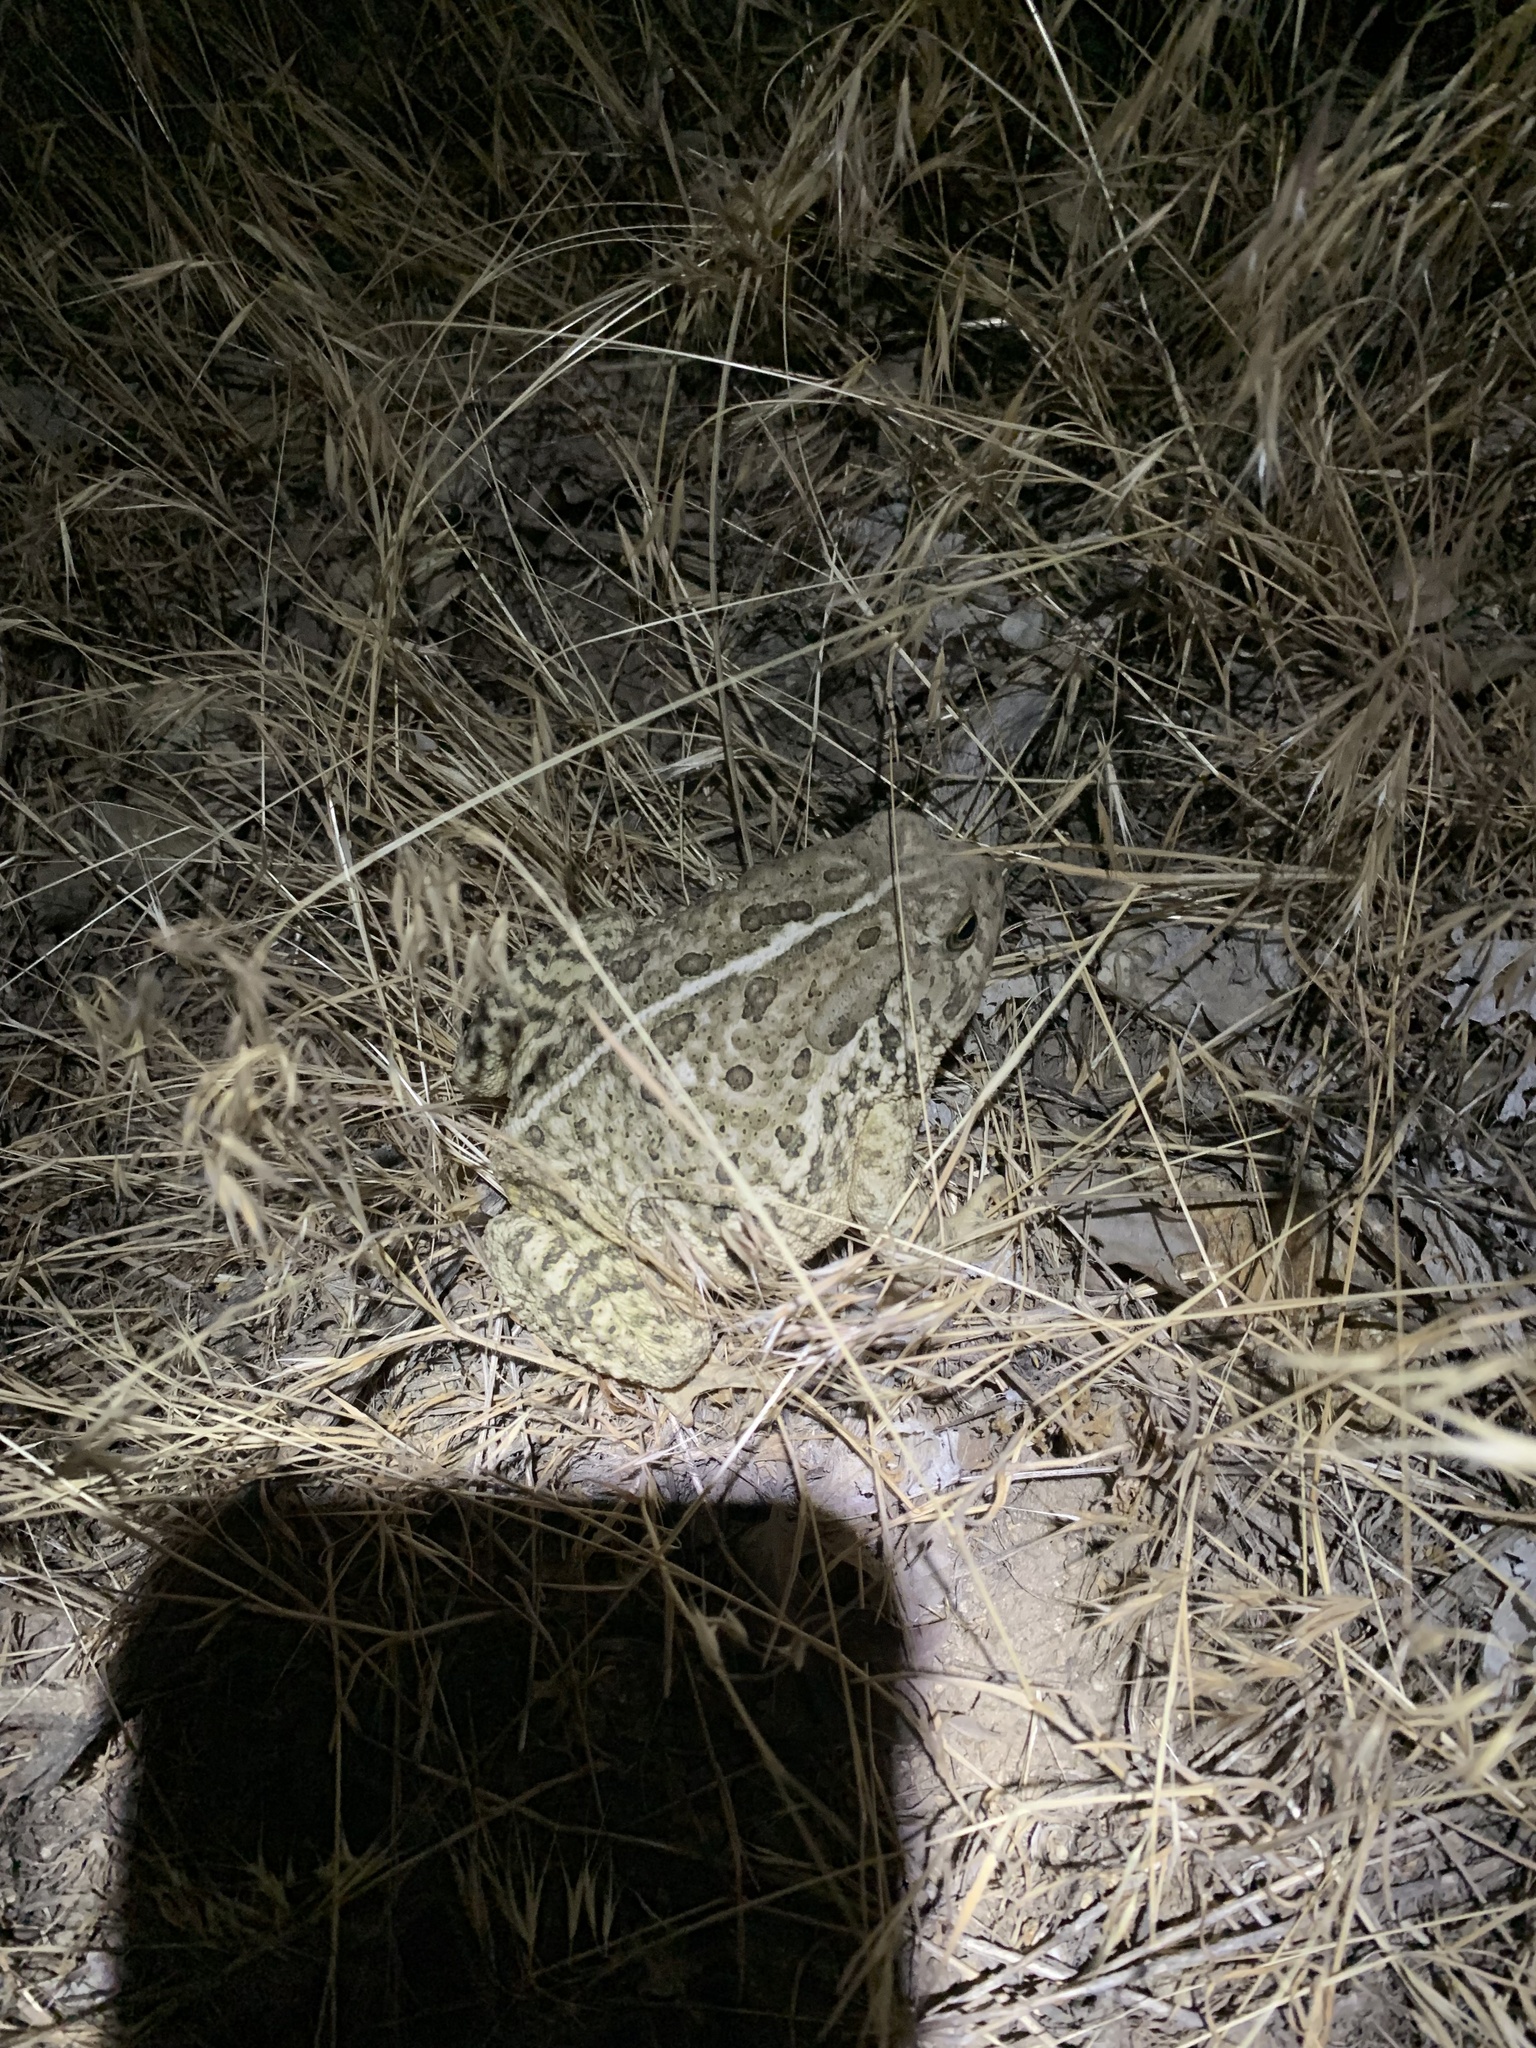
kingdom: Animalia
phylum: Chordata
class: Amphibia
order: Anura
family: Bufonidae
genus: Anaxyrus
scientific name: Anaxyrus woodhousii
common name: Woodhouse's toad
